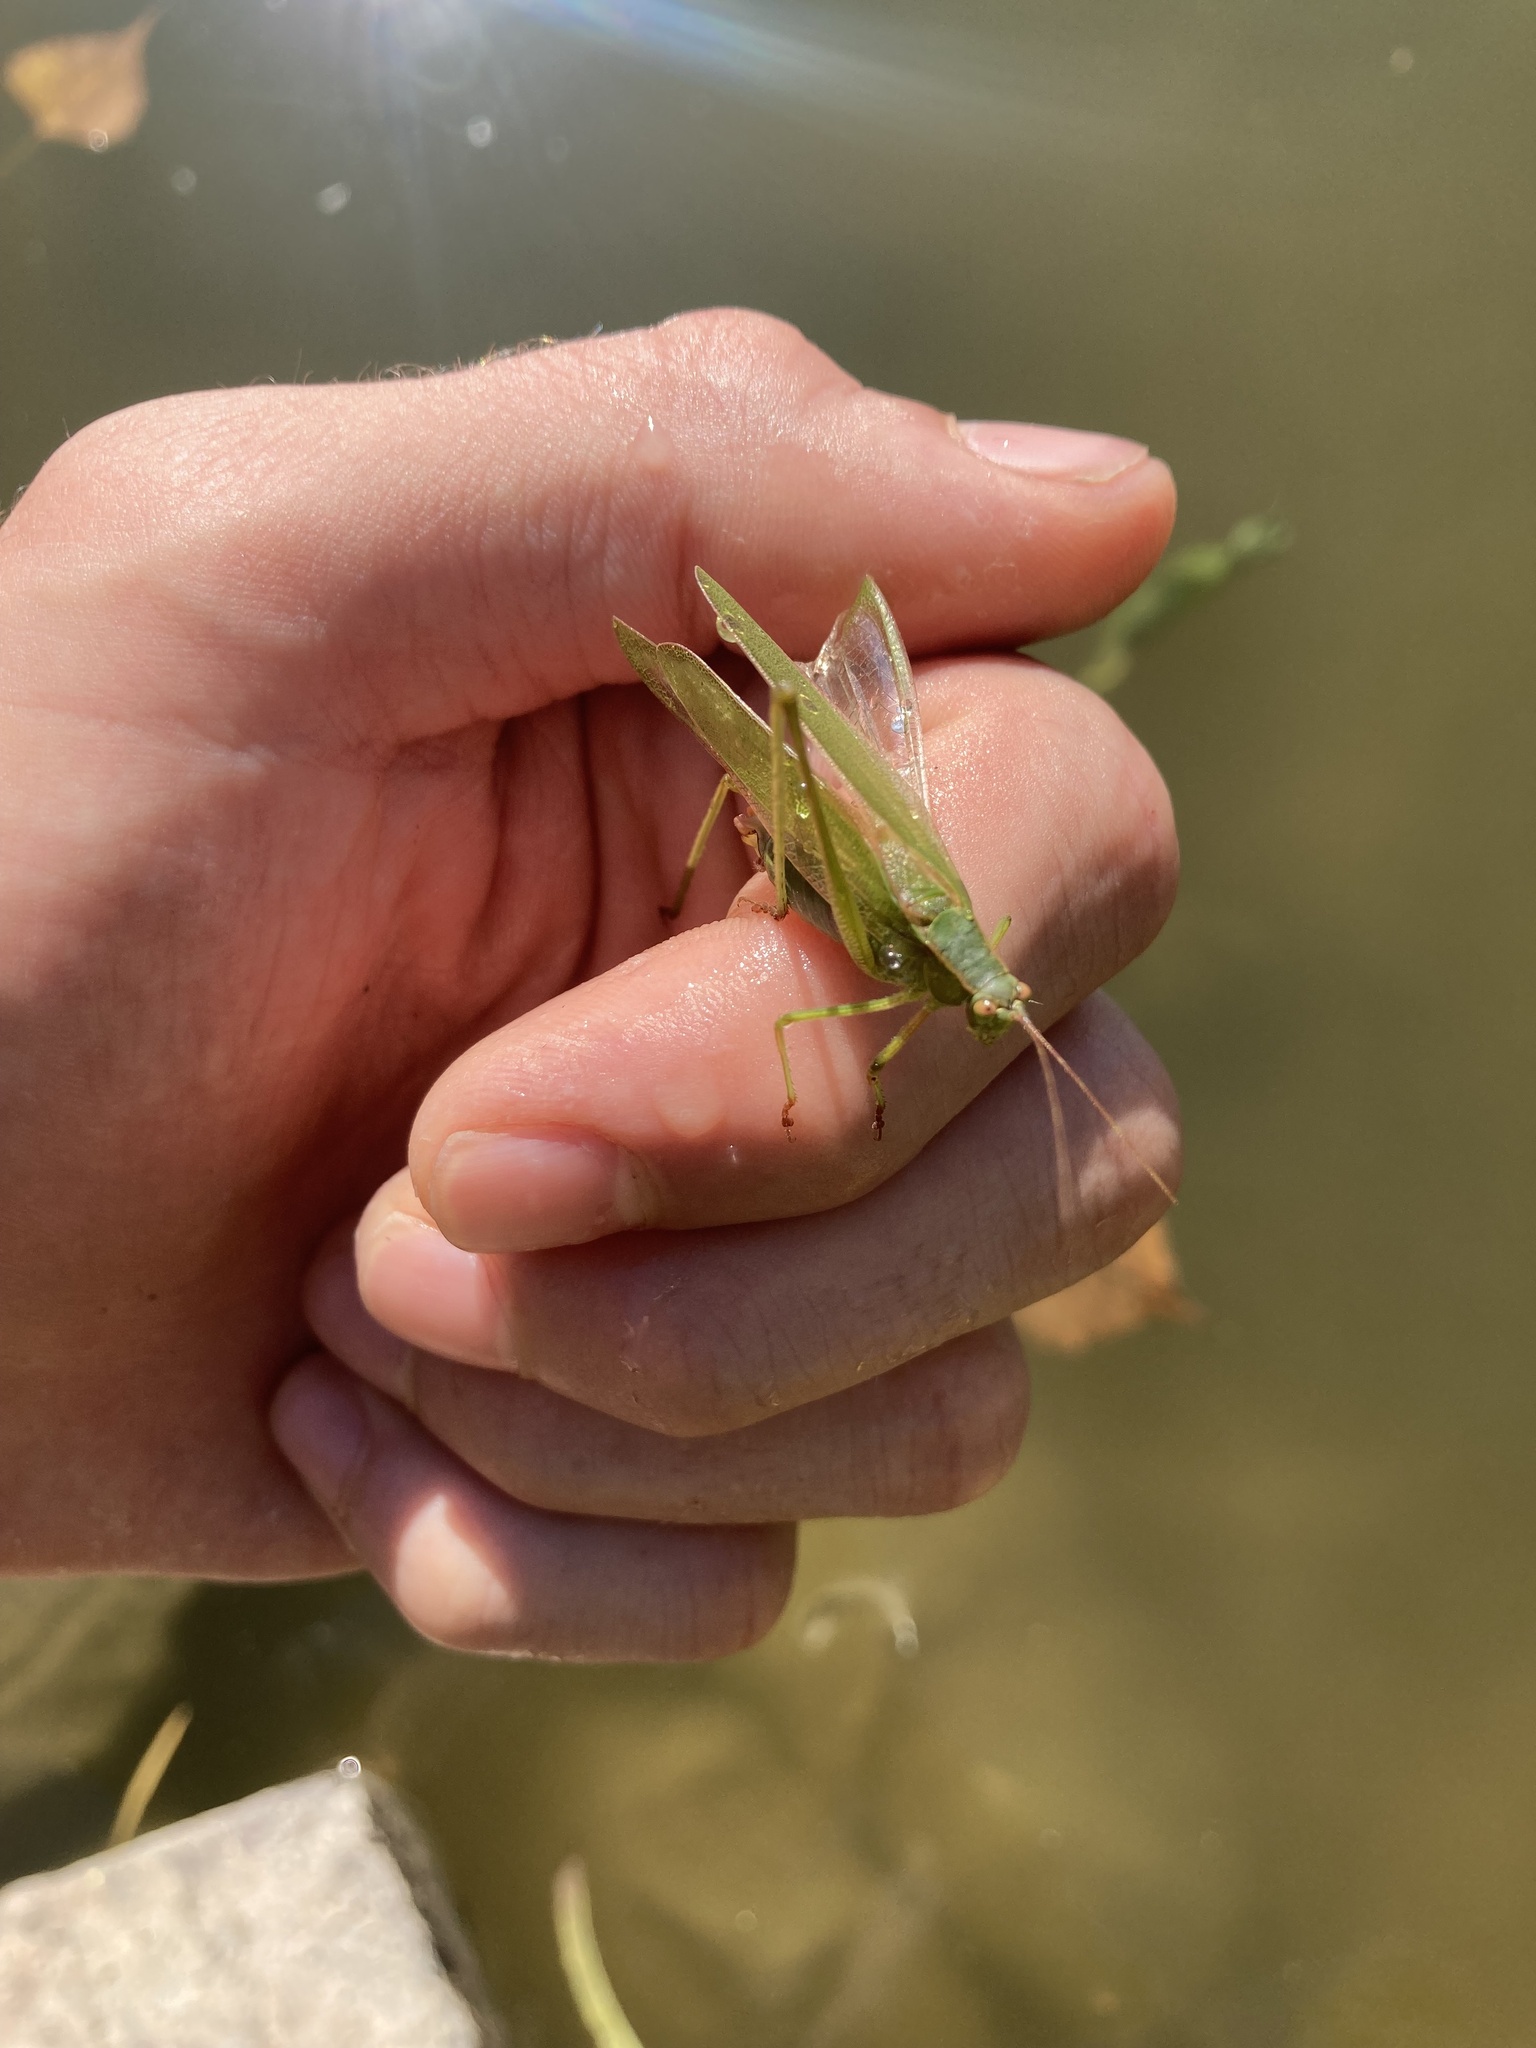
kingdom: Animalia
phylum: Arthropoda
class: Insecta
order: Orthoptera
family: Tettigoniidae
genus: Scudderia
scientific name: Scudderia furcata
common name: Fork-tailed bush katydid
